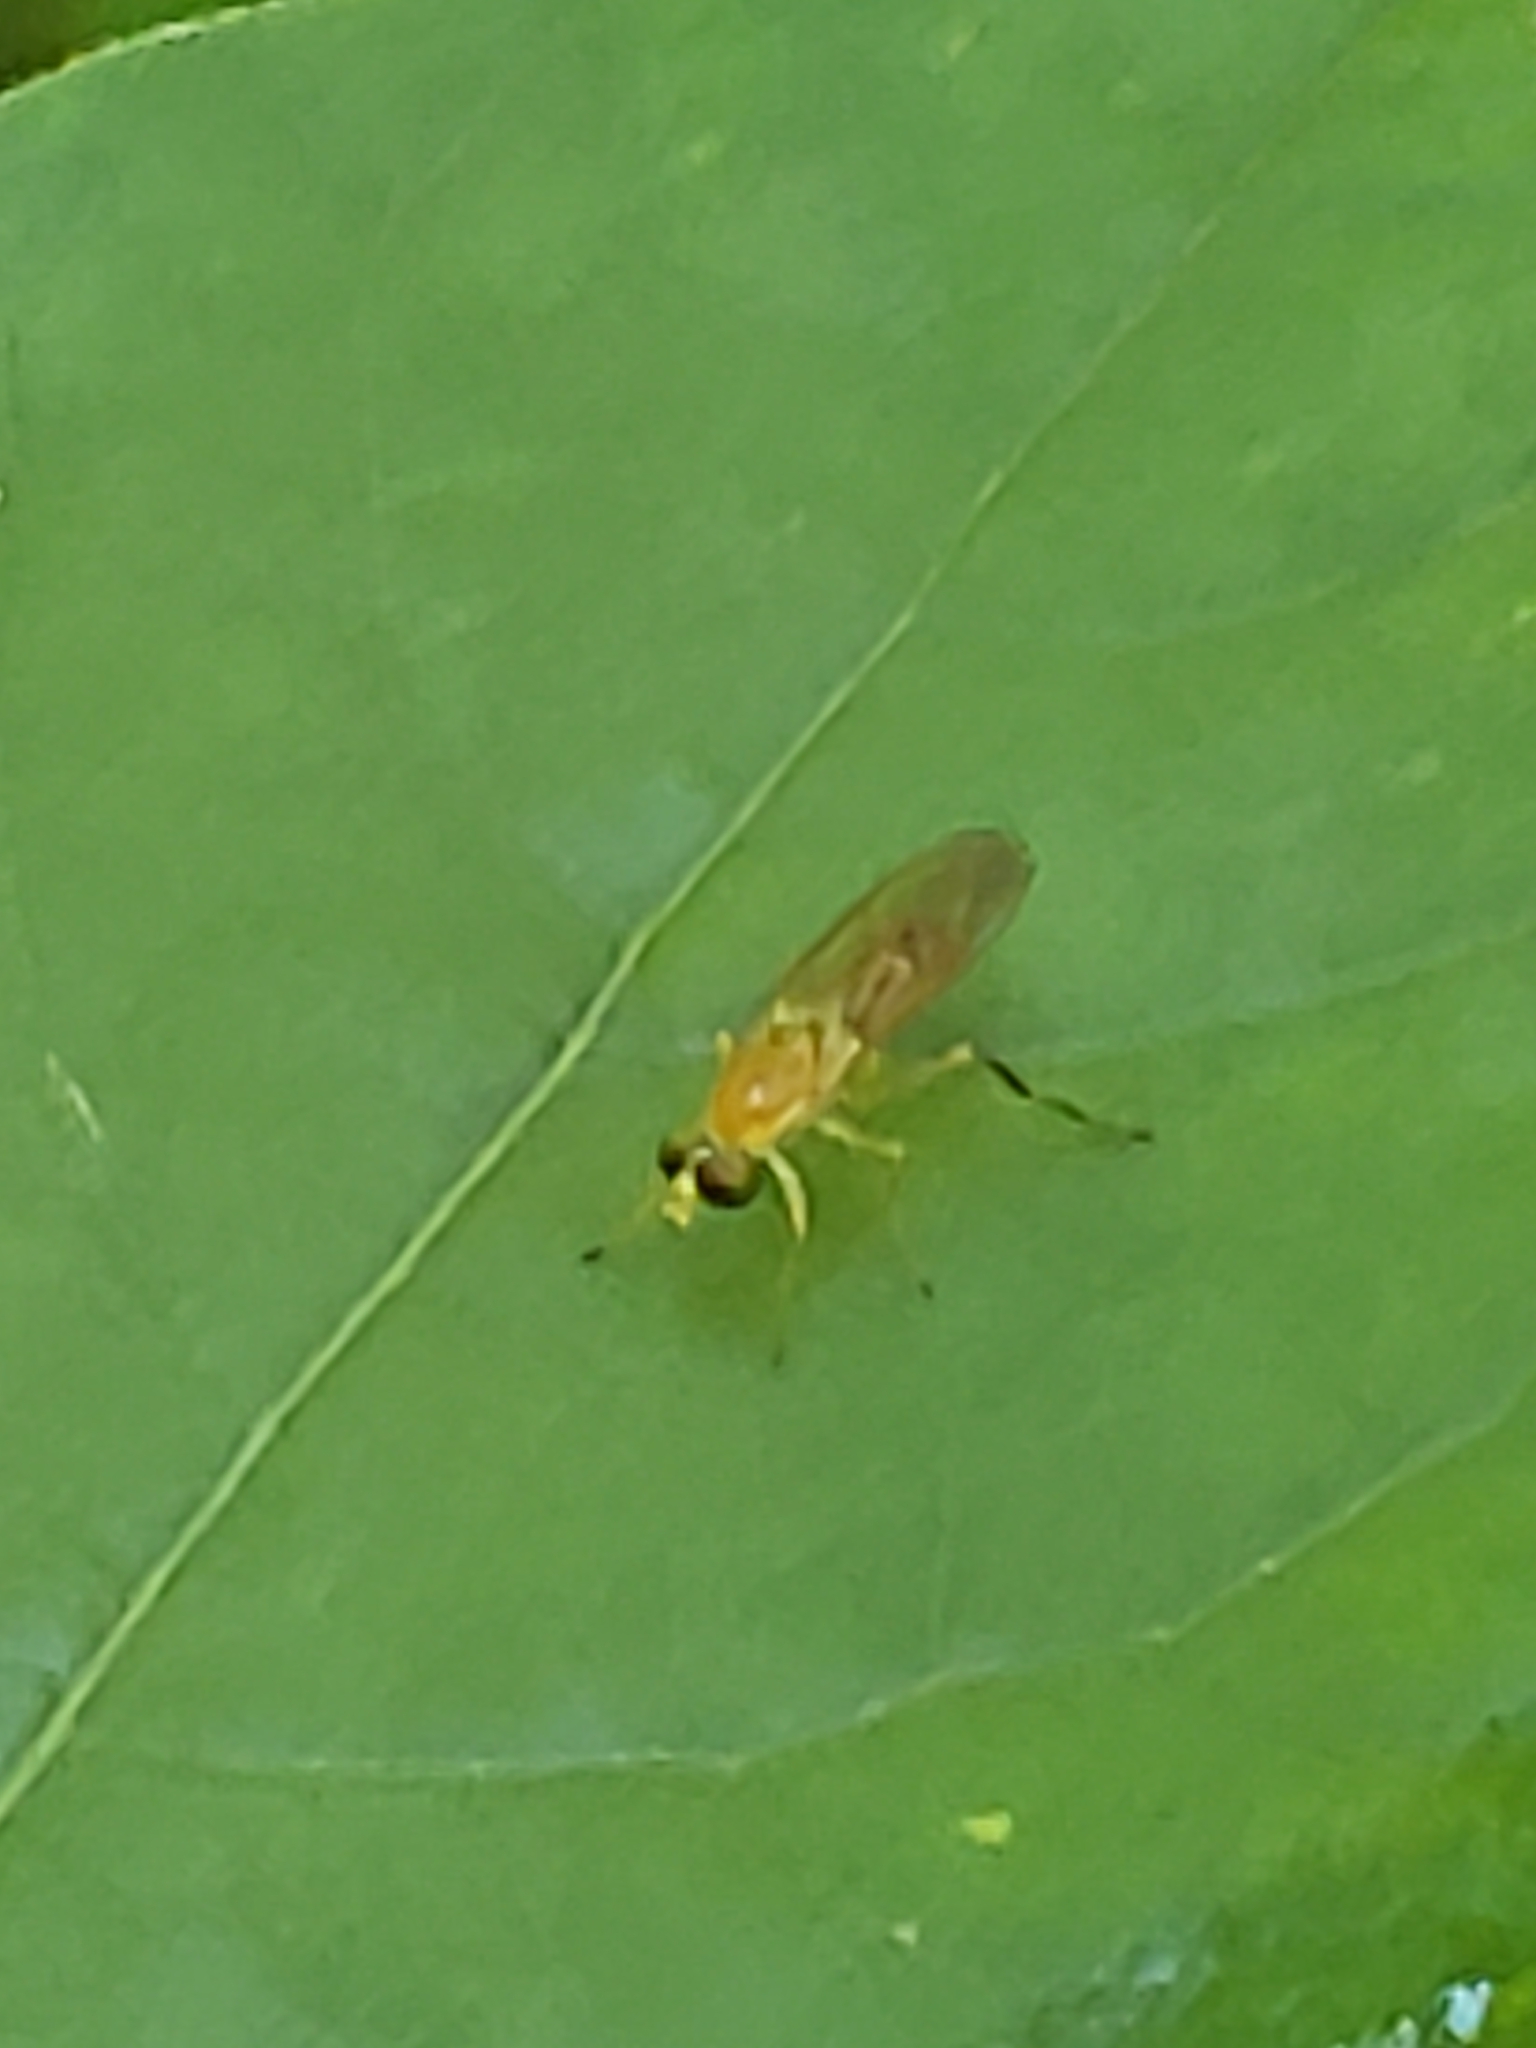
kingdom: Animalia
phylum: Arthropoda
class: Insecta
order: Diptera
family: Stratiomyidae
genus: Ptecticus
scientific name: Ptecticus trivittatus
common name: Compost fly
